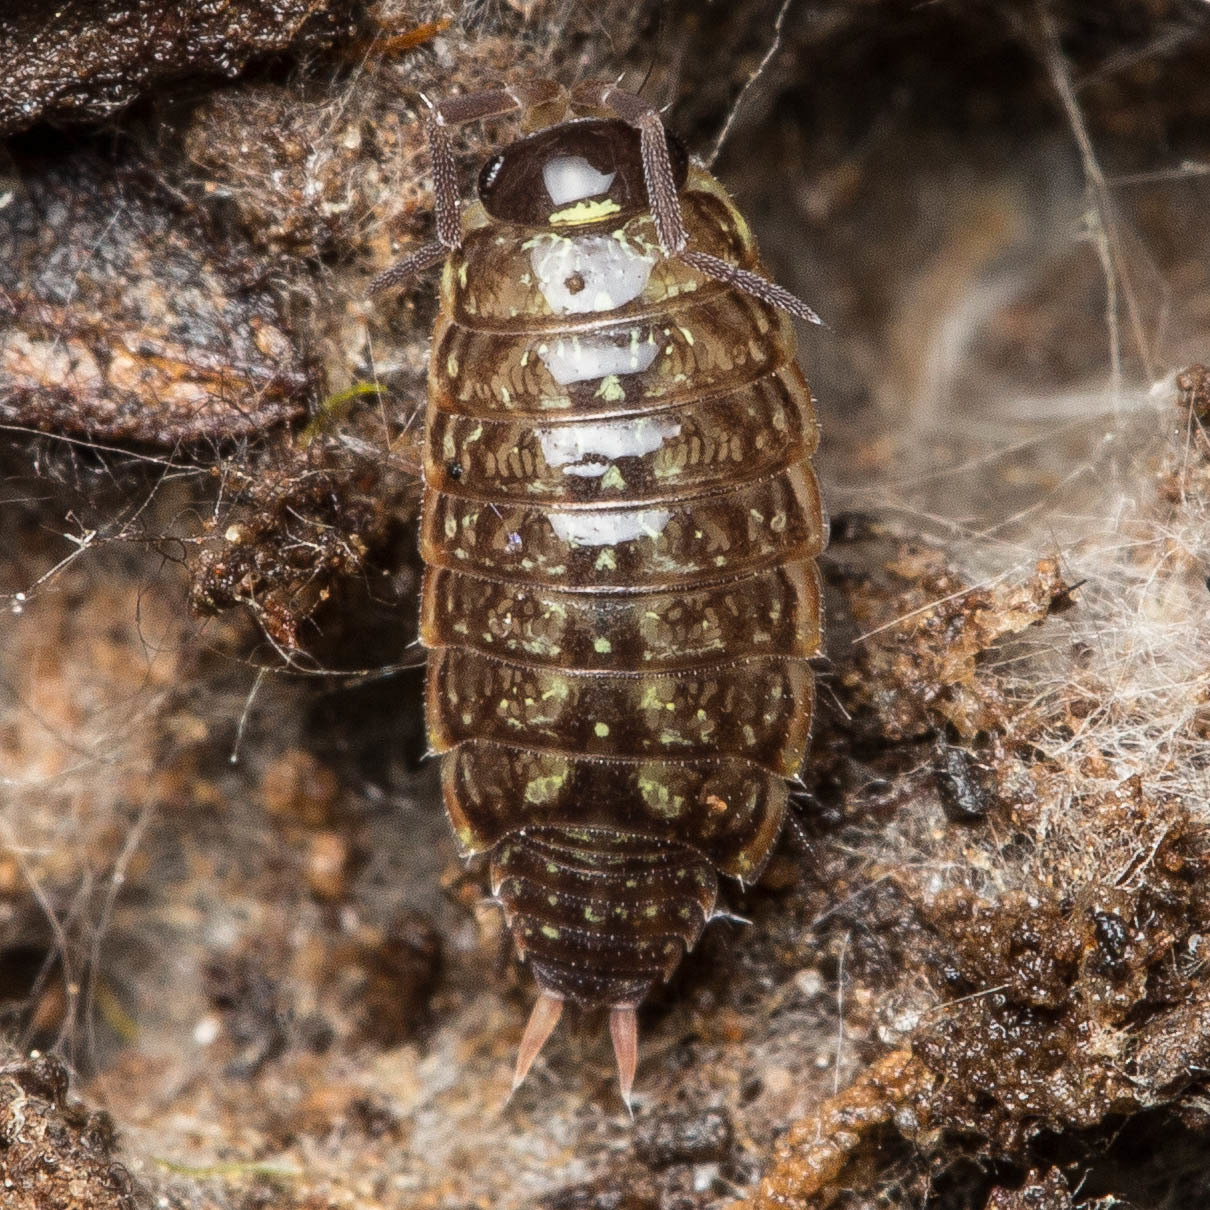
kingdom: Animalia
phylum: Arthropoda
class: Malacostraca
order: Isopoda
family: Philosciidae
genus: Philoscia
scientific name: Philoscia muscorum
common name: Common striped woodlouse
